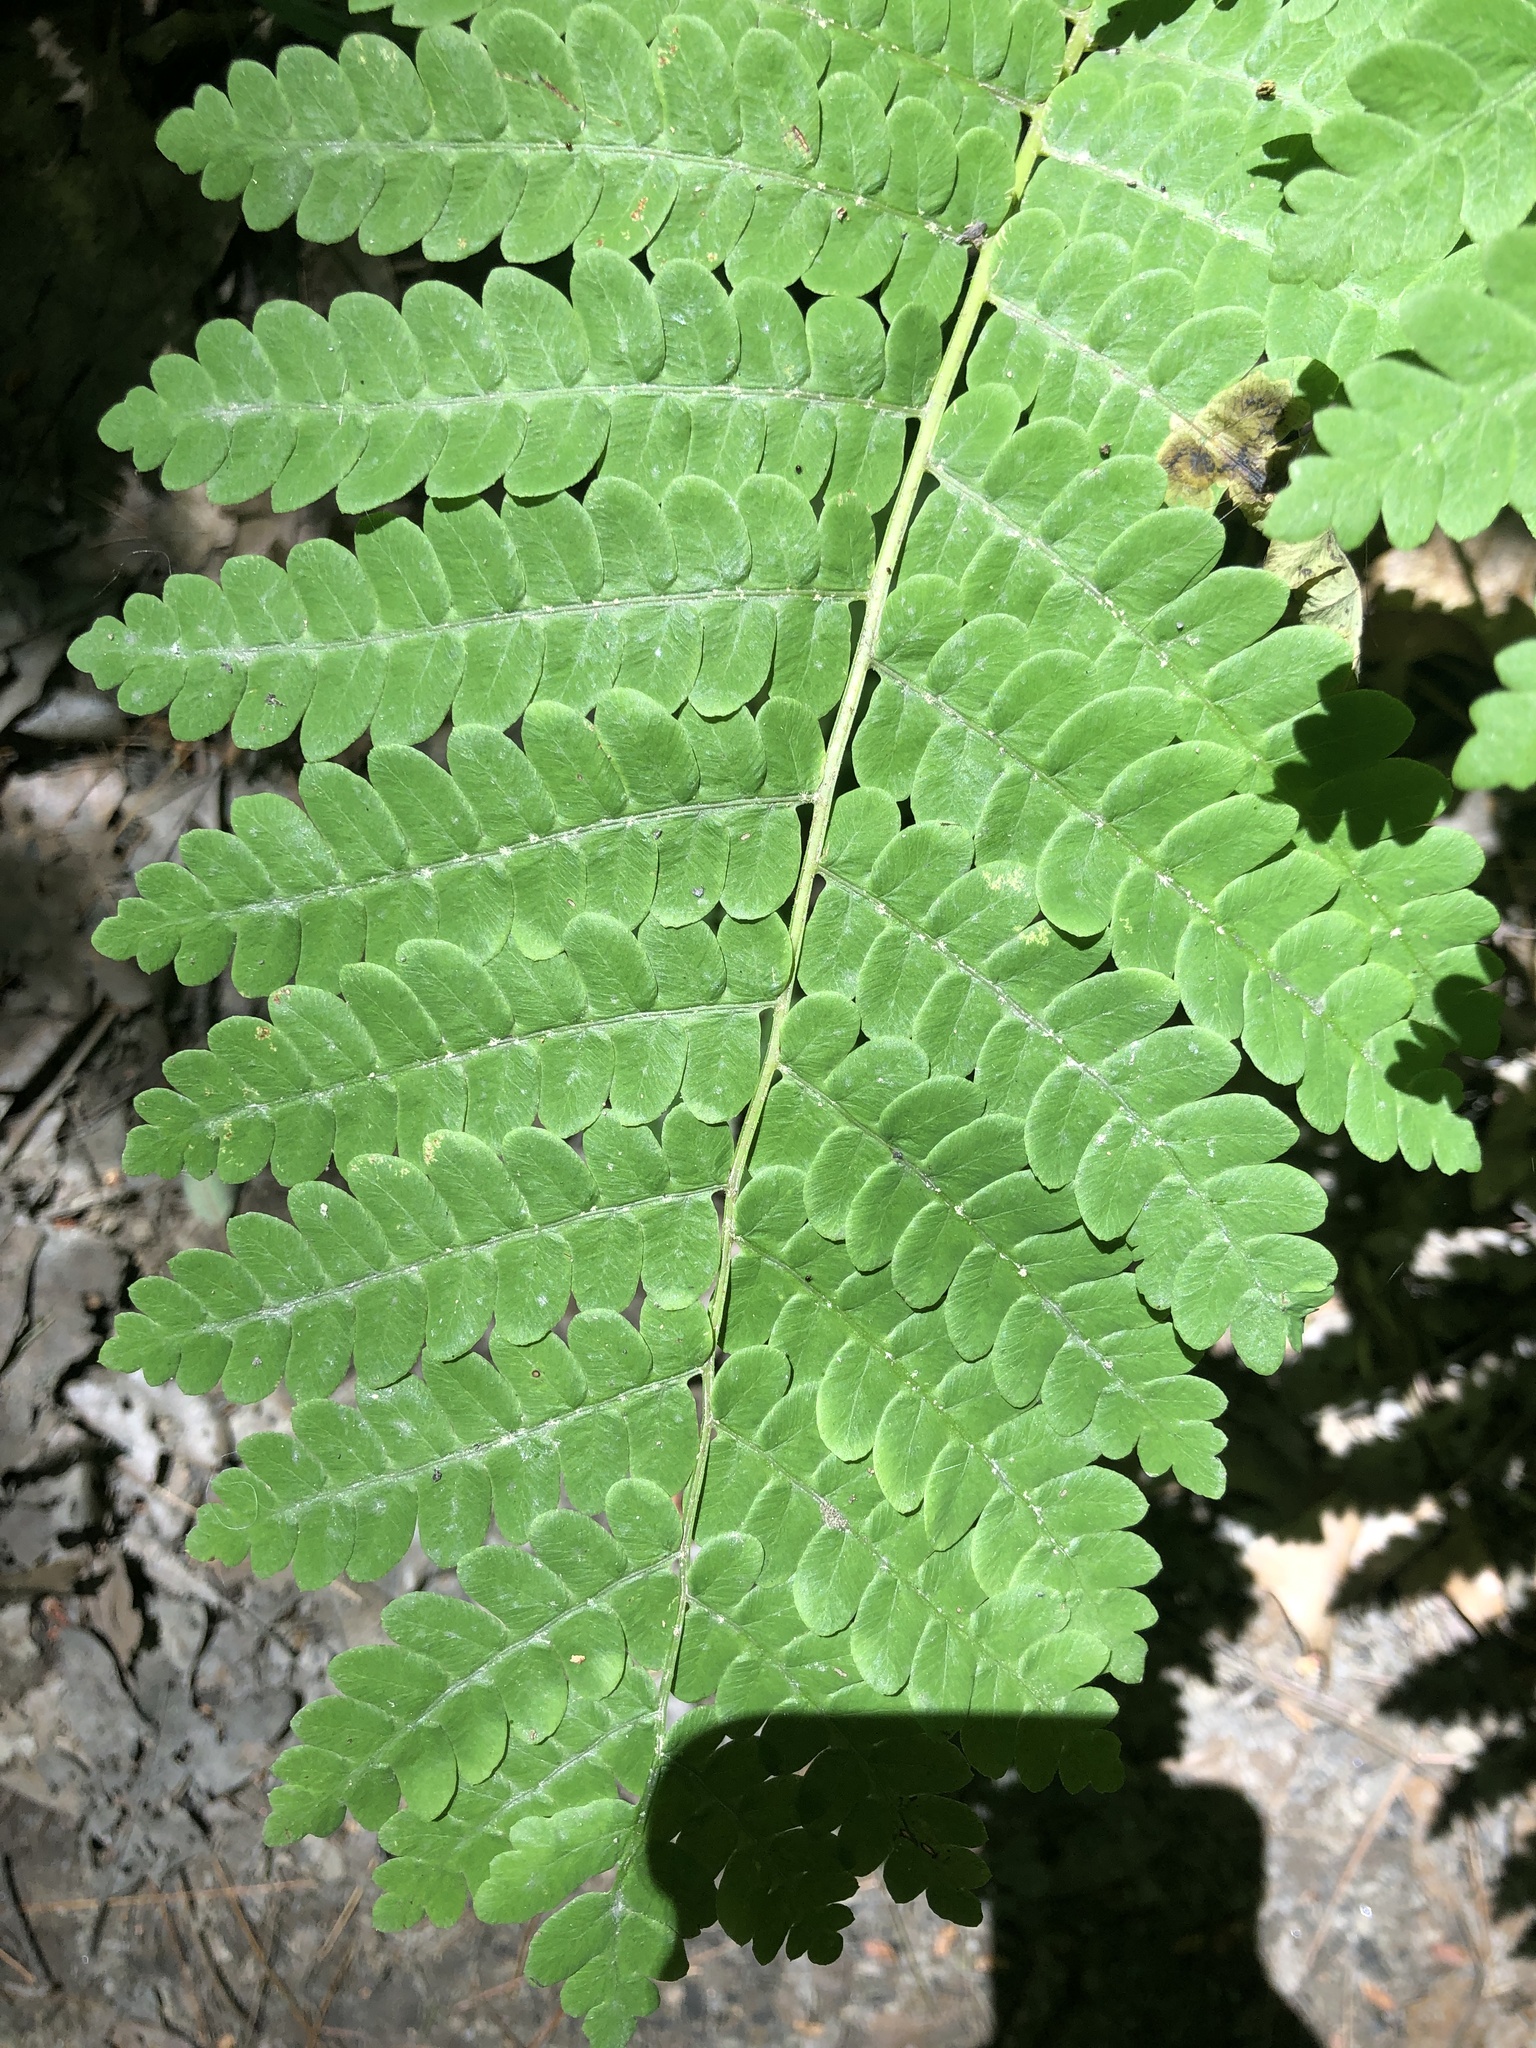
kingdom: Plantae
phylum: Tracheophyta
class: Polypodiopsida
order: Osmundales
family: Osmundaceae
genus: Claytosmunda
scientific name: Claytosmunda claytoniana
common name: Clayton's fern
